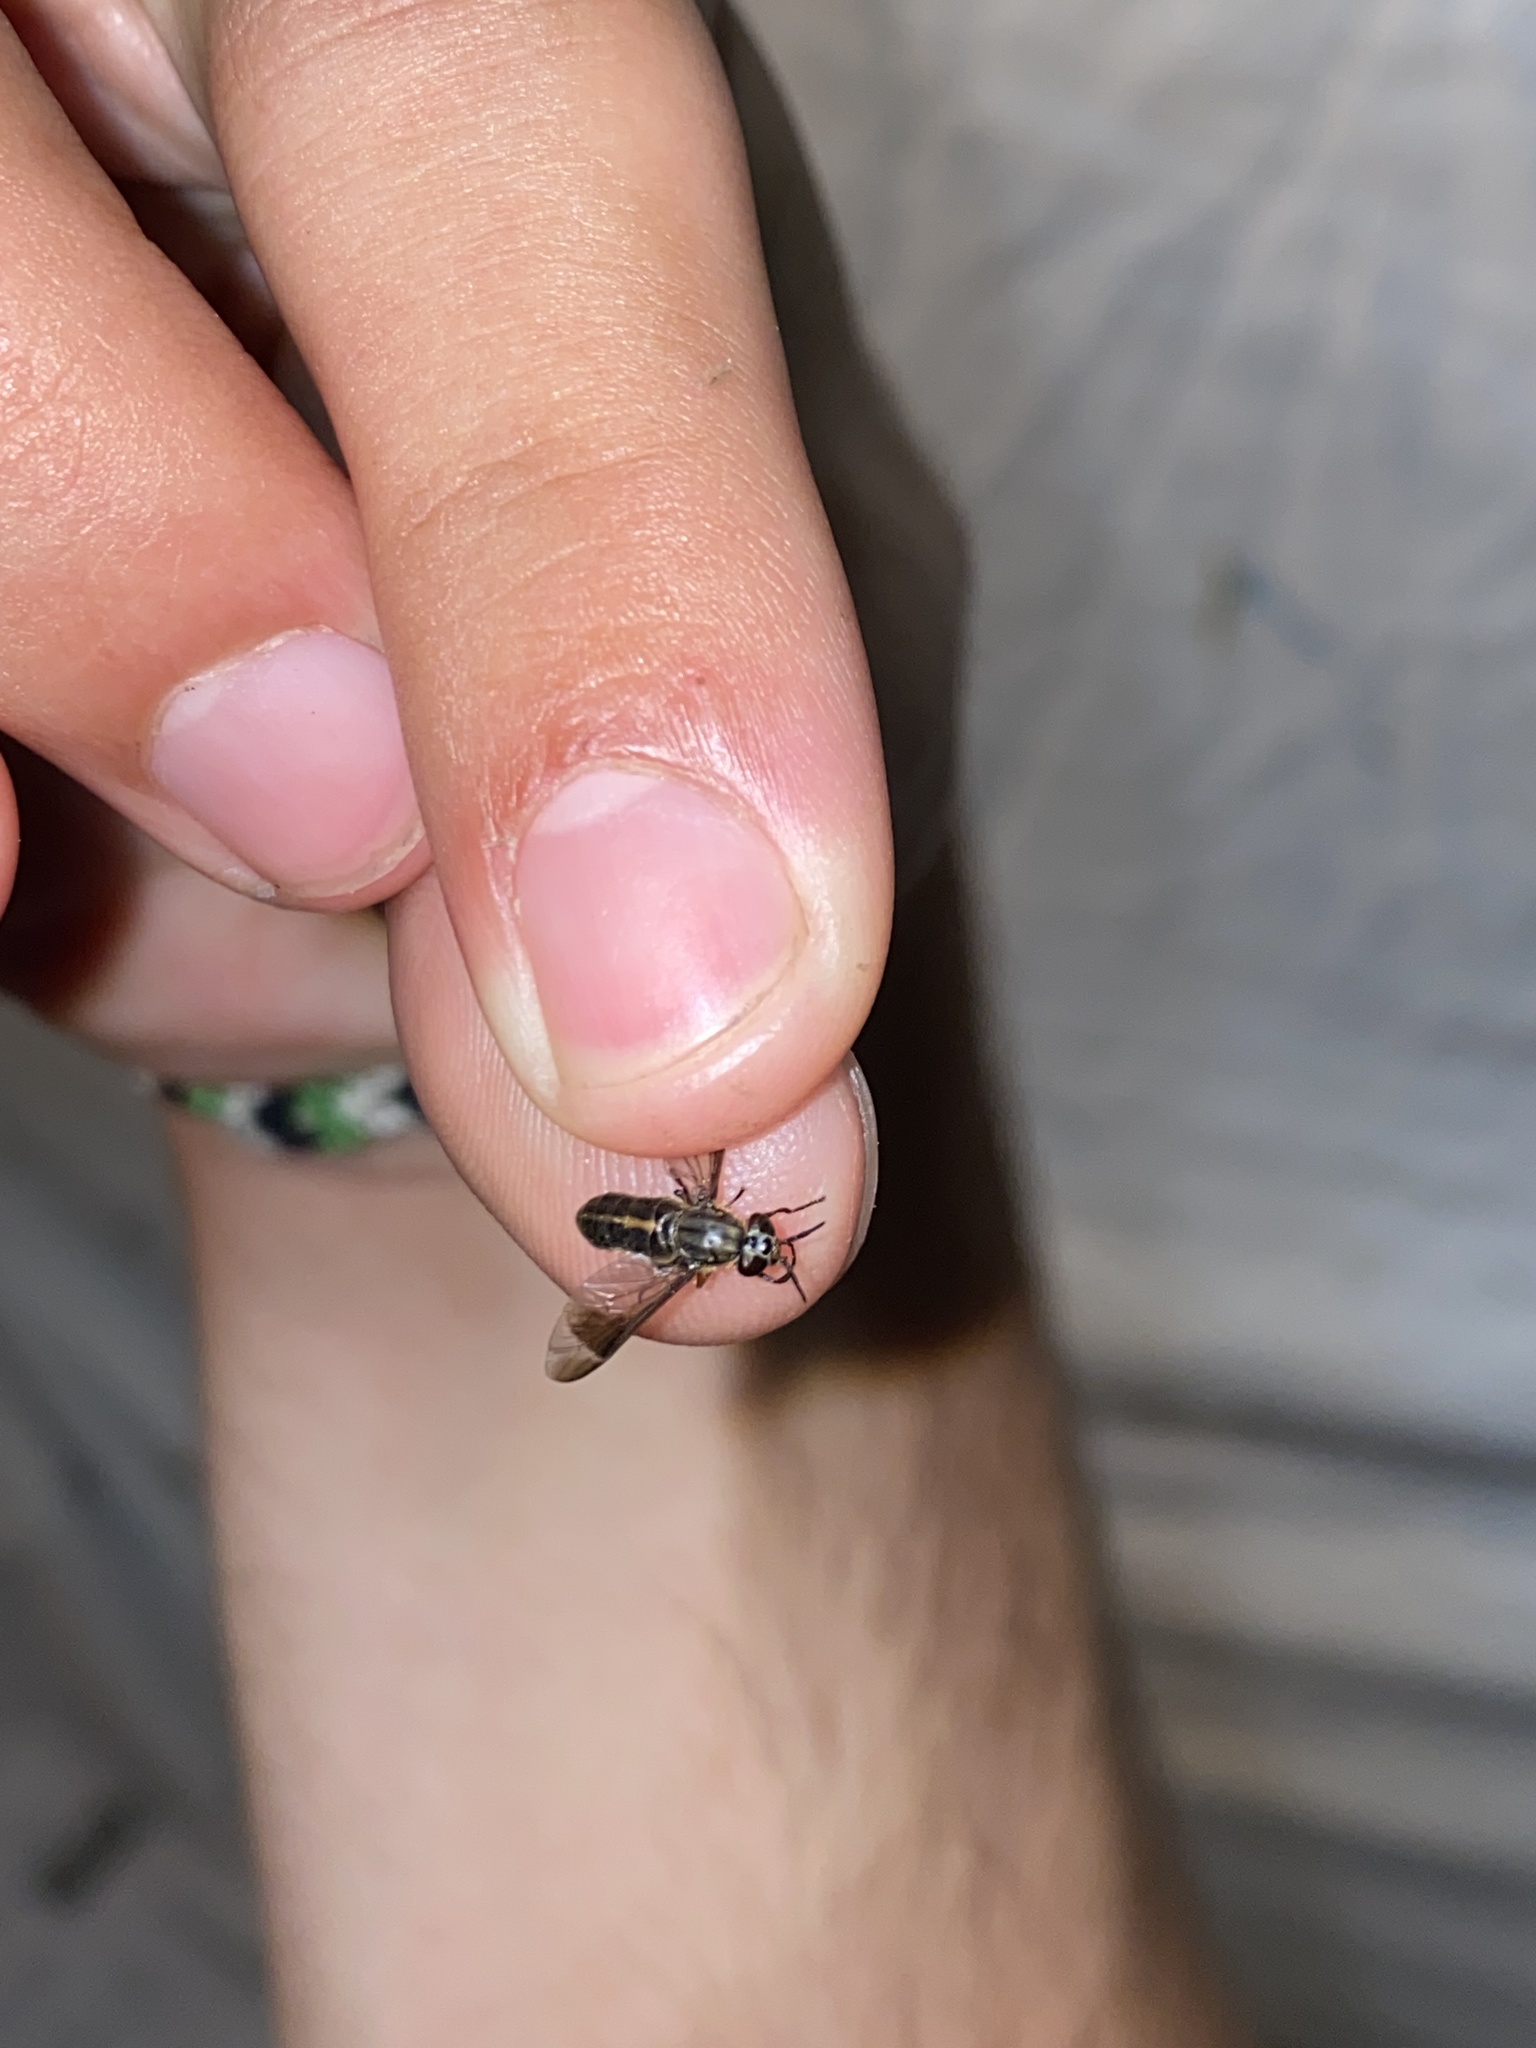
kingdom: Animalia
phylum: Arthropoda
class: Insecta
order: Diptera
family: Tabanidae
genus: Chrysops
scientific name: Chrysops univittatus
